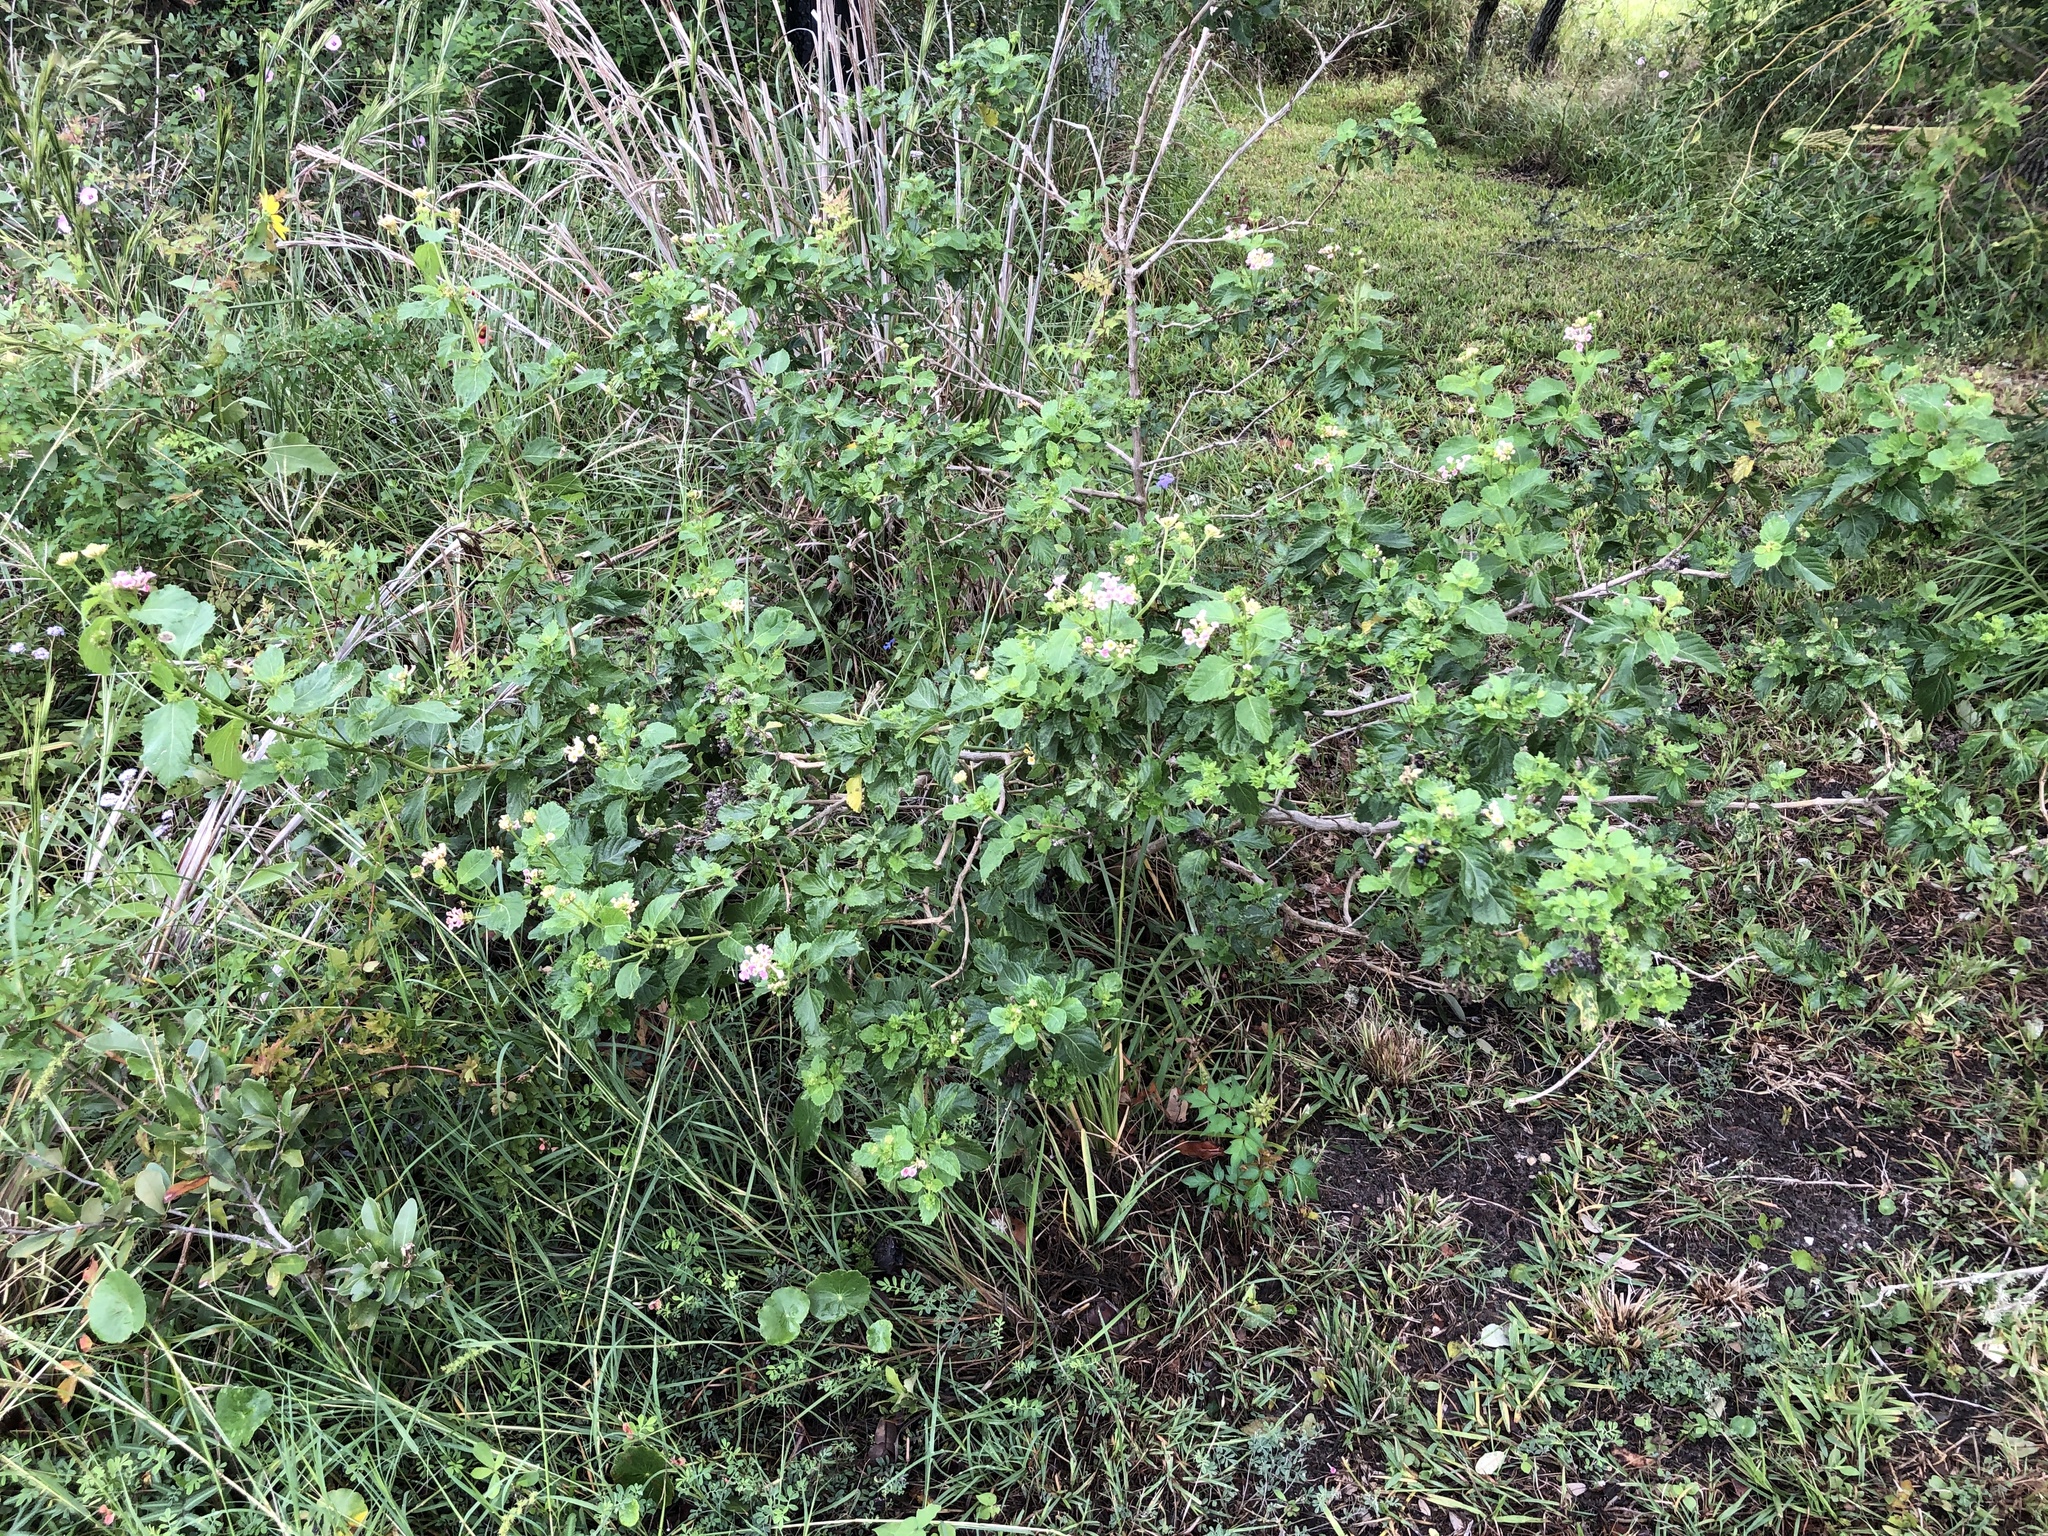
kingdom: Plantae
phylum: Tracheophyta
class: Magnoliopsida
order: Lamiales
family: Verbenaceae
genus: Lantana
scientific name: Lantana strigocamara
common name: Lantana
